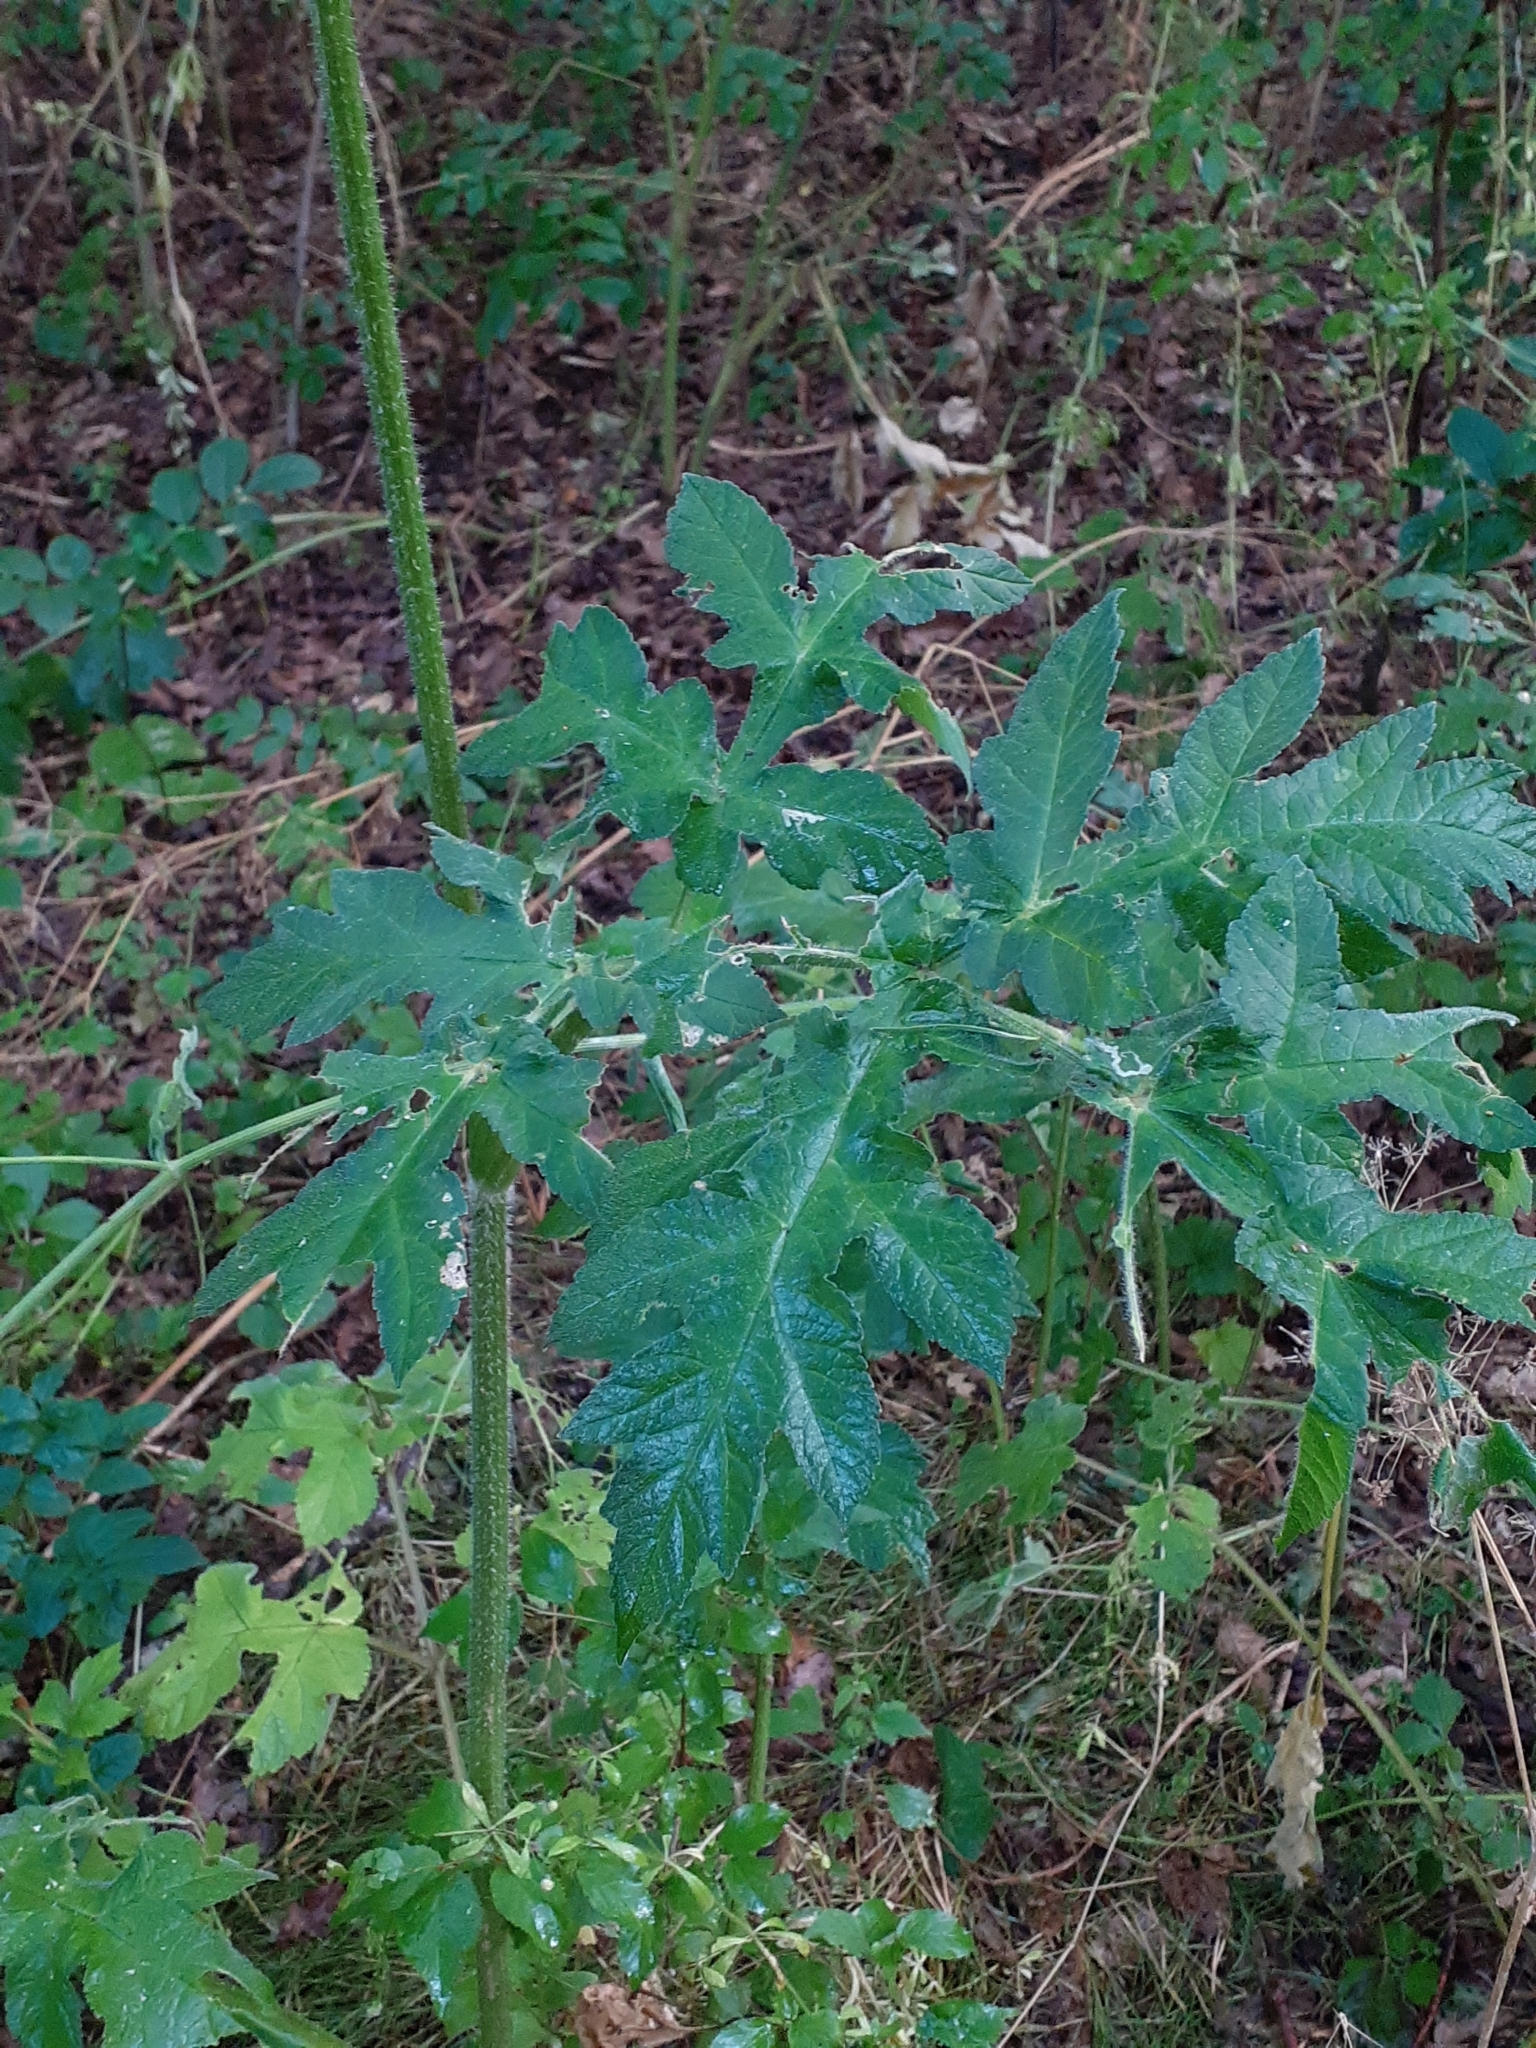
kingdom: Plantae
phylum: Tracheophyta
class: Magnoliopsida
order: Apiales
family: Apiaceae
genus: Heracleum
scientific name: Heracleum sphondylium
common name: Hogweed
